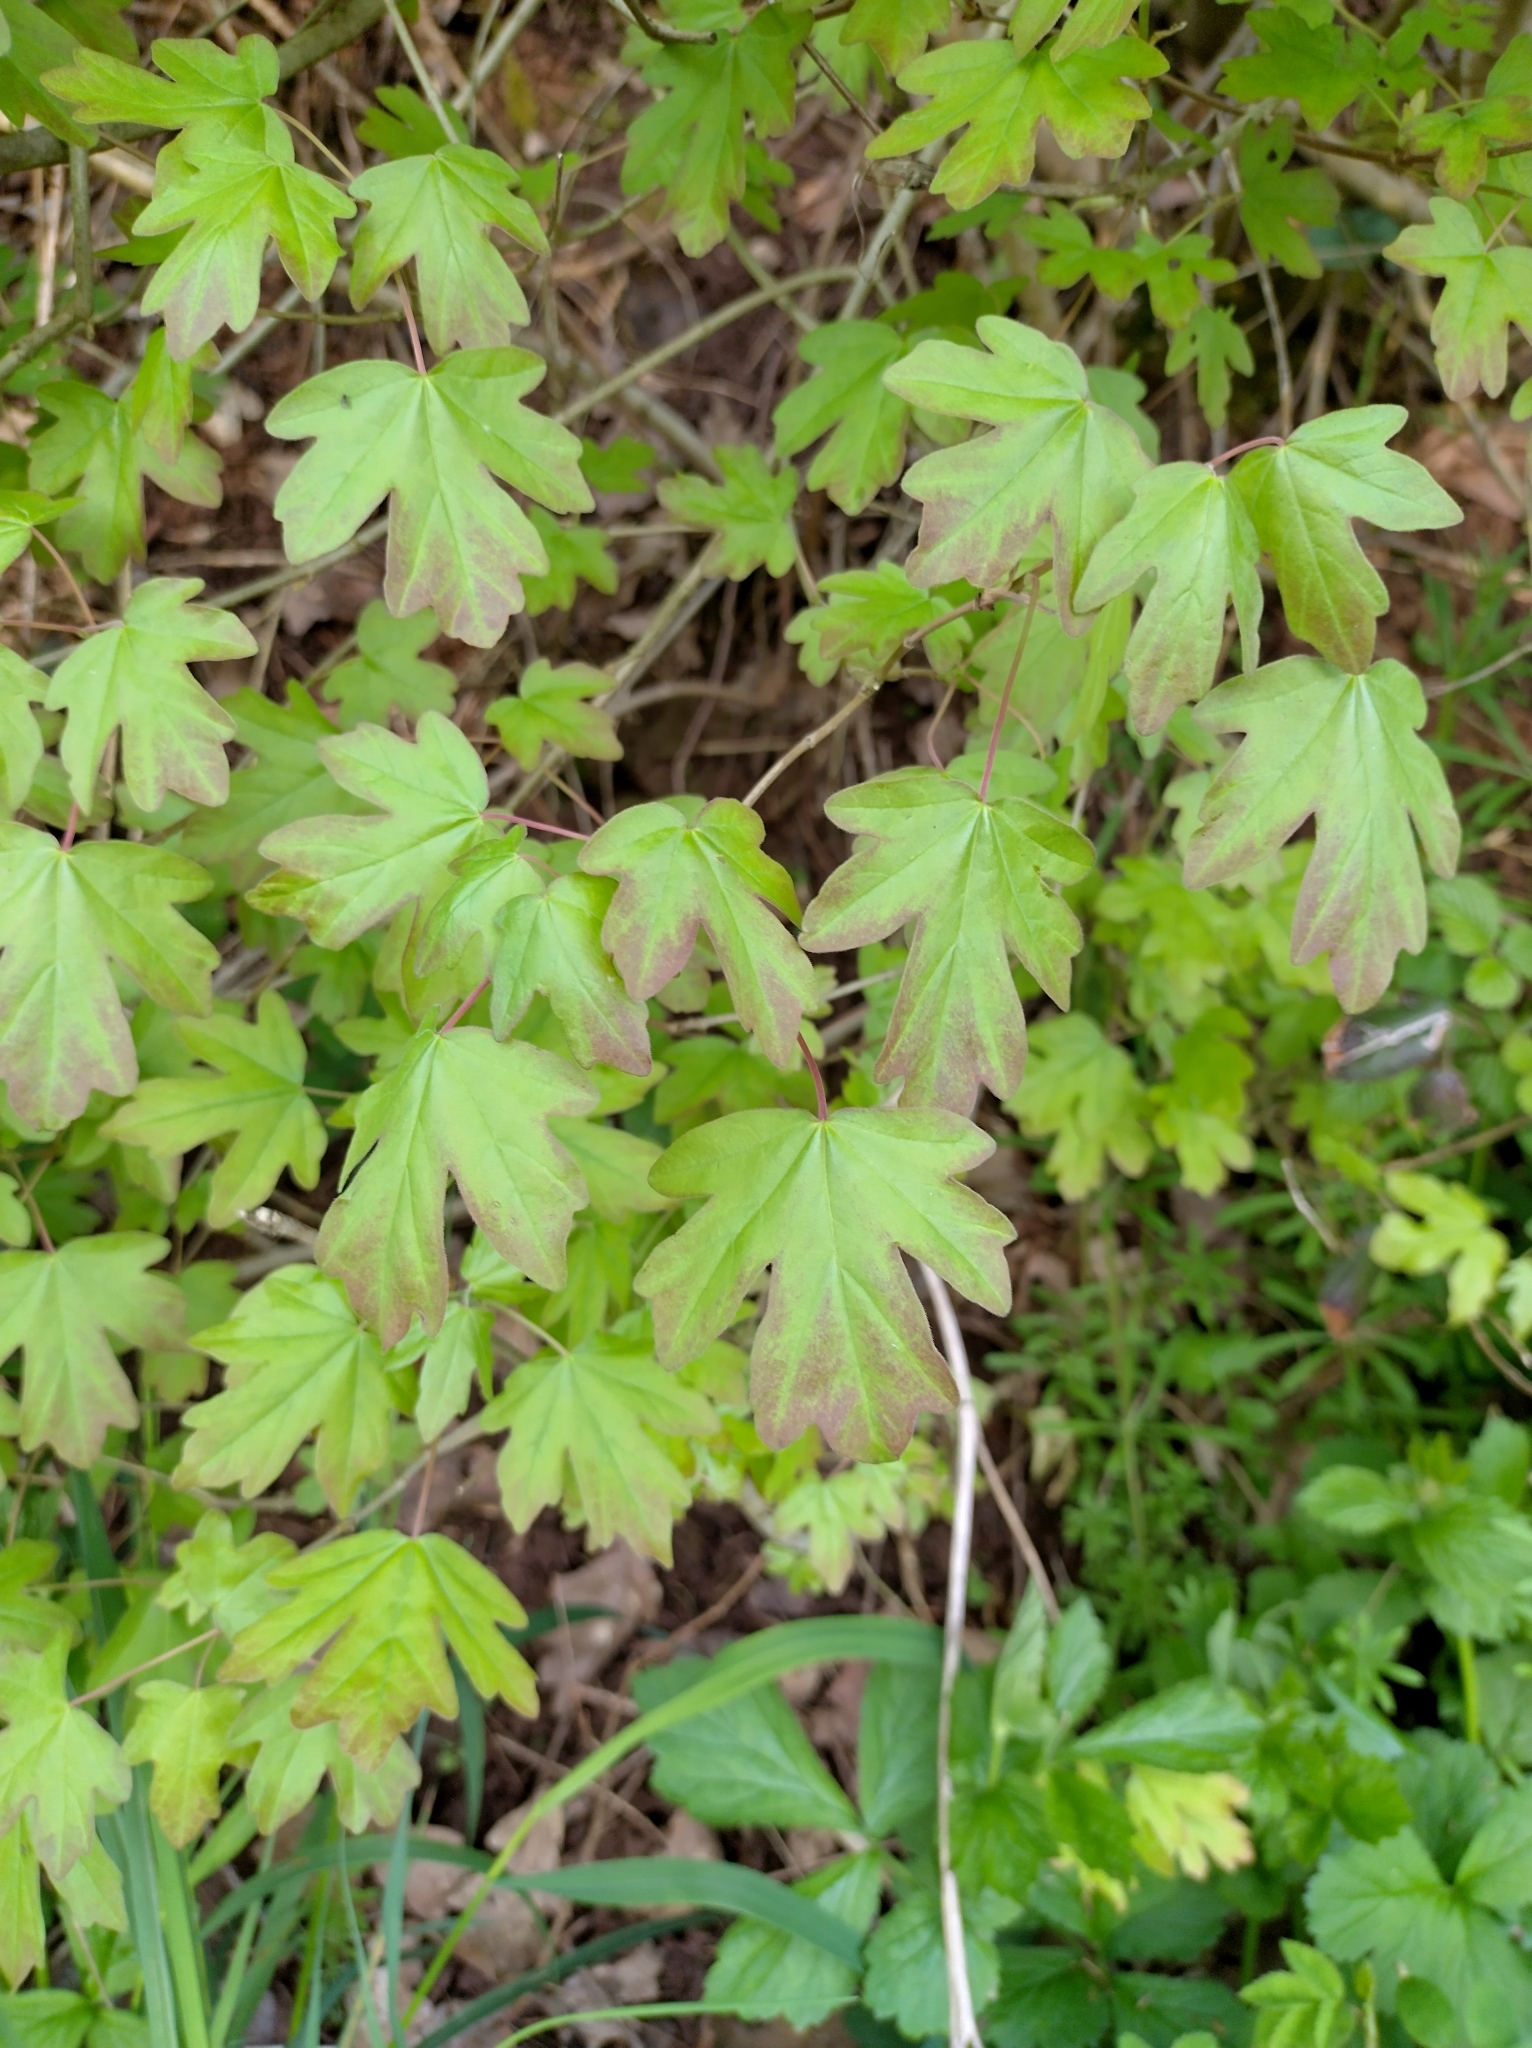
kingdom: Plantae
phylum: Tracheophyta
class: Magnoliopsida
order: Sapindales
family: Sapindaceae
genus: Acer
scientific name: Acer campestre
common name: Field maple
